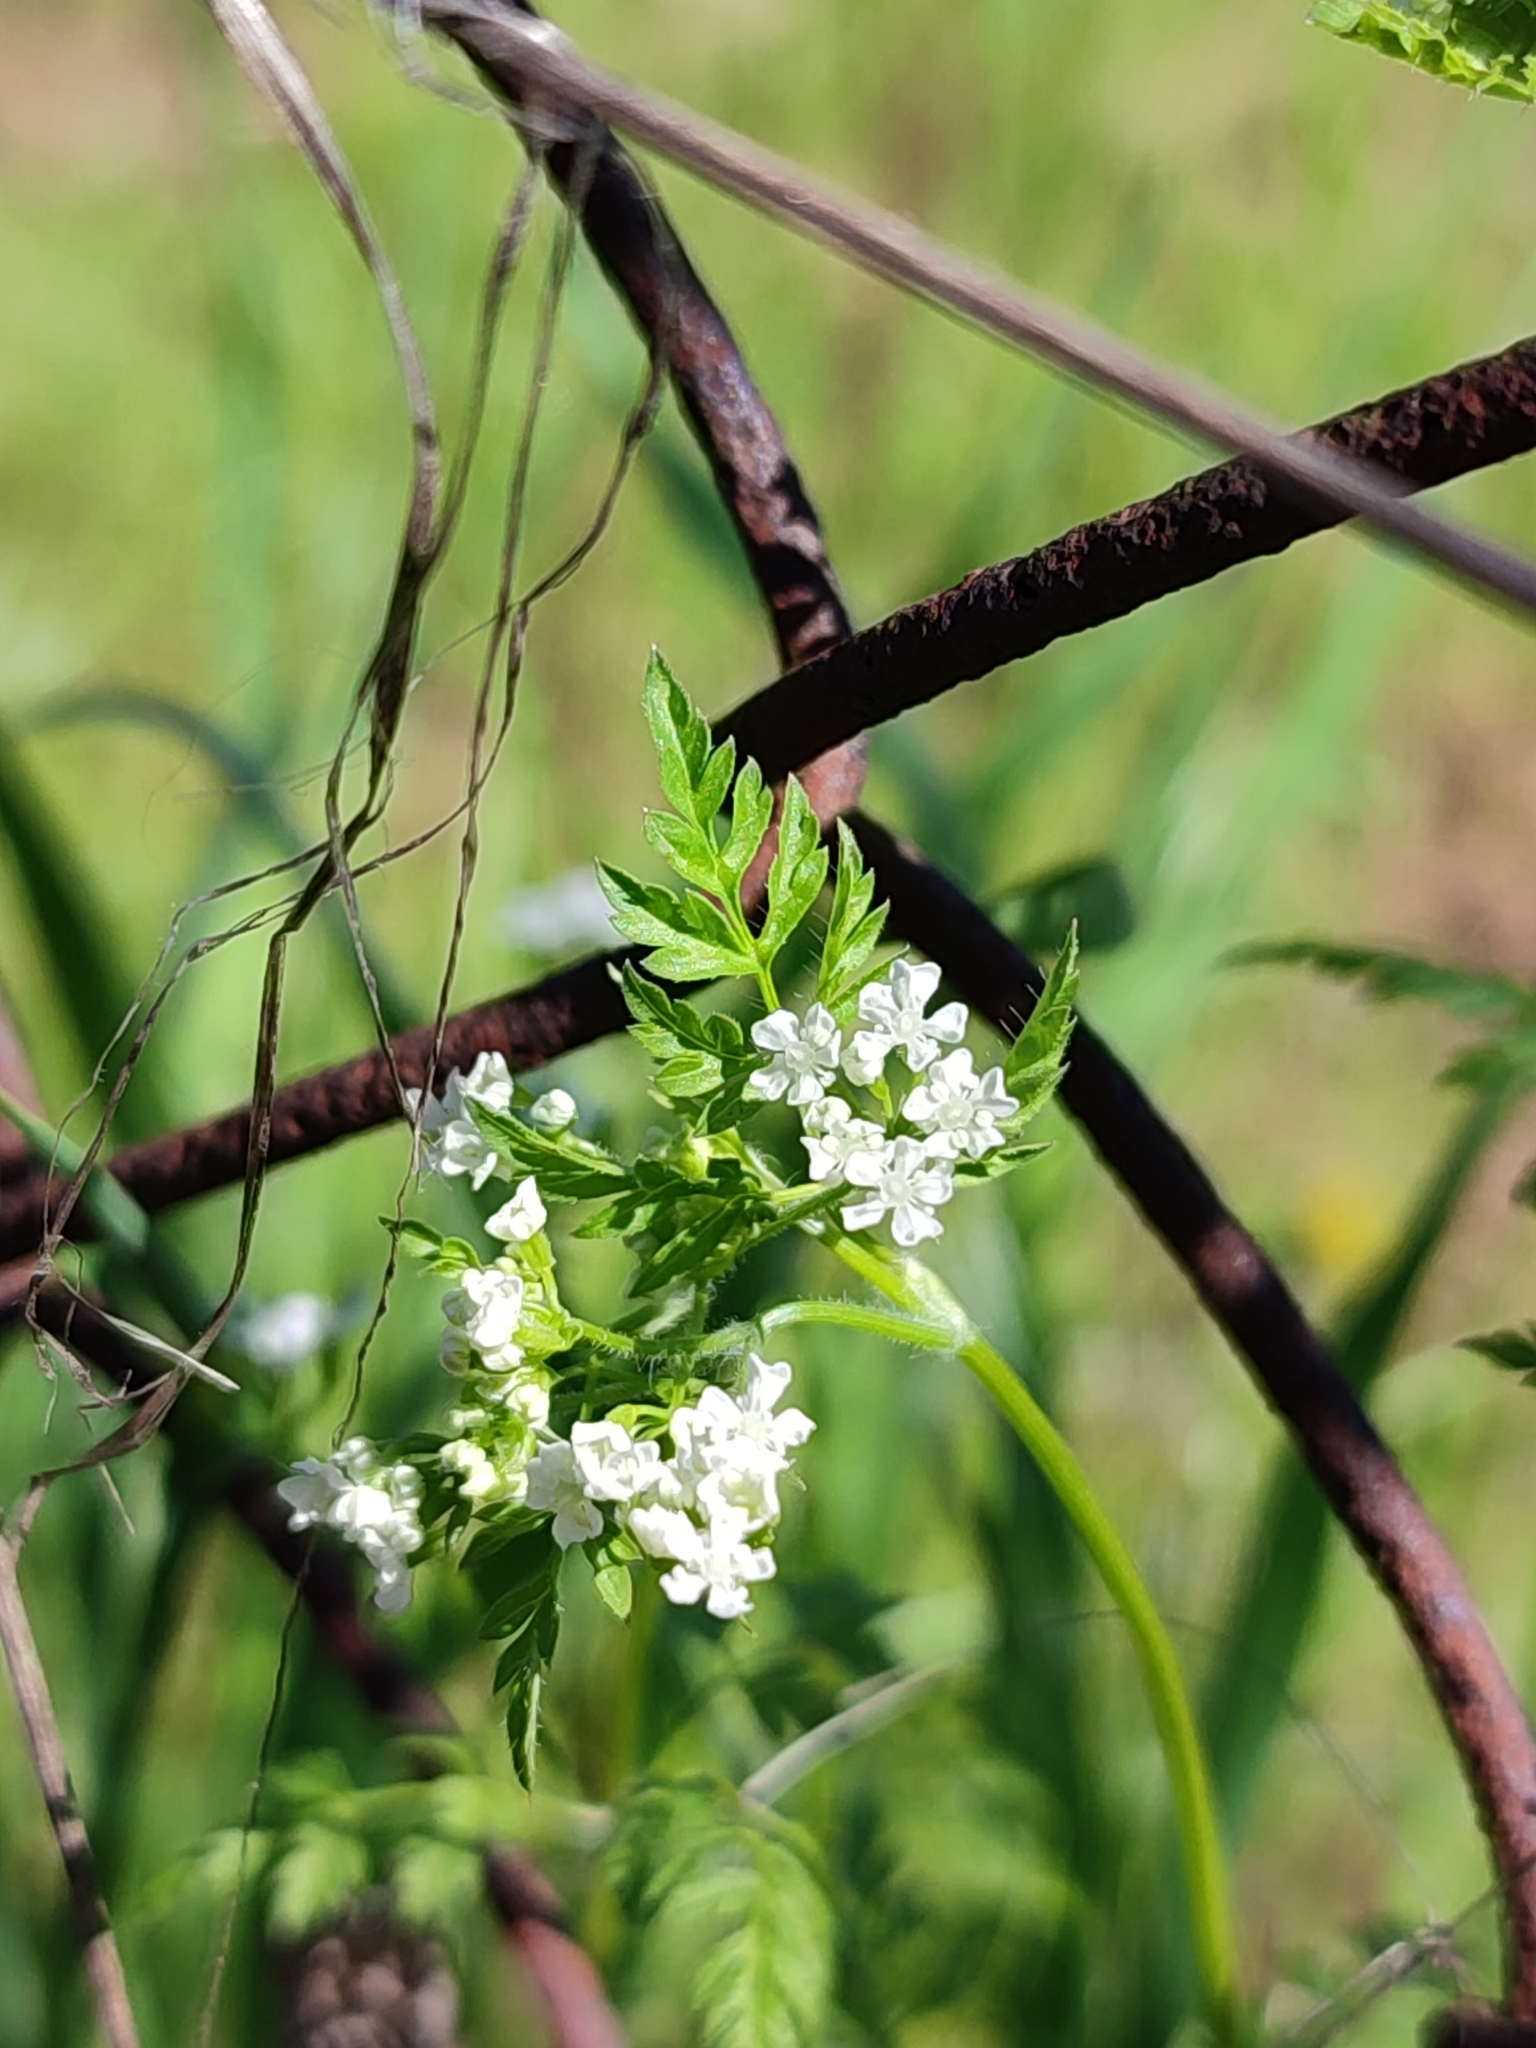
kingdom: Plantae
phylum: Tracheophyta
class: Magnoliopsida
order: Apiales
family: Apiaceae
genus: Anthriscus
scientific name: Anthriscus cerefolium
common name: Garden chervil
